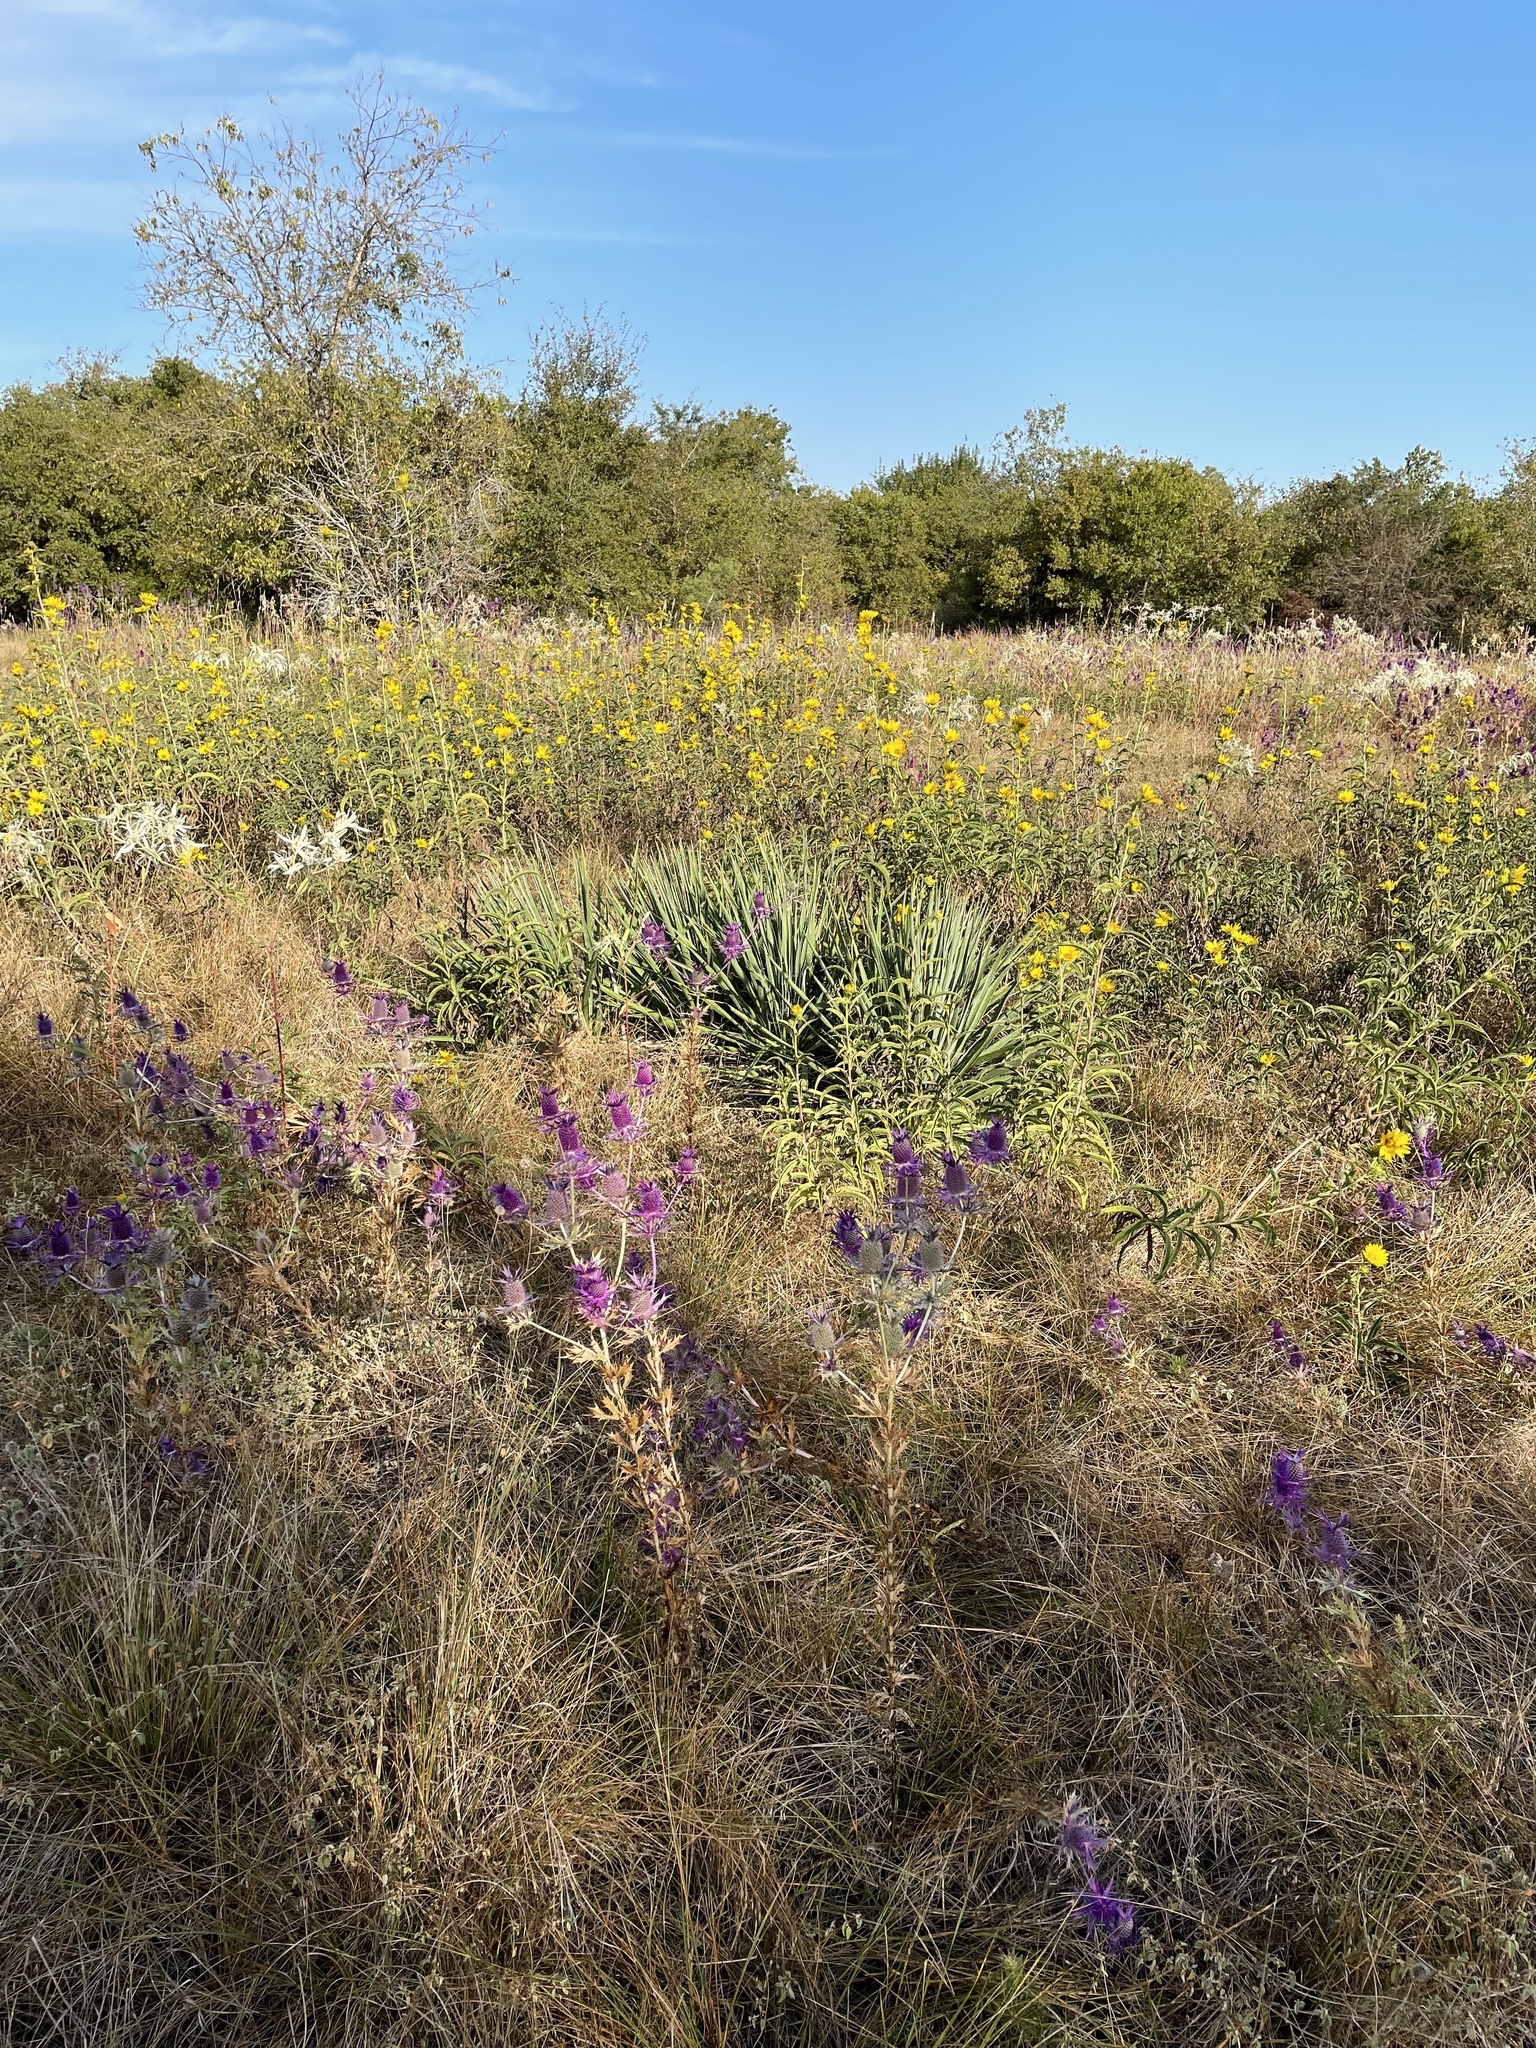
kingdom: Plantae
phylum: Tracheophyta
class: Magnoliopsida
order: Asterales
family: Asteraceae
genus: Helianthus
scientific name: Helianthus maximiliani
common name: Maximilian's sunflower
